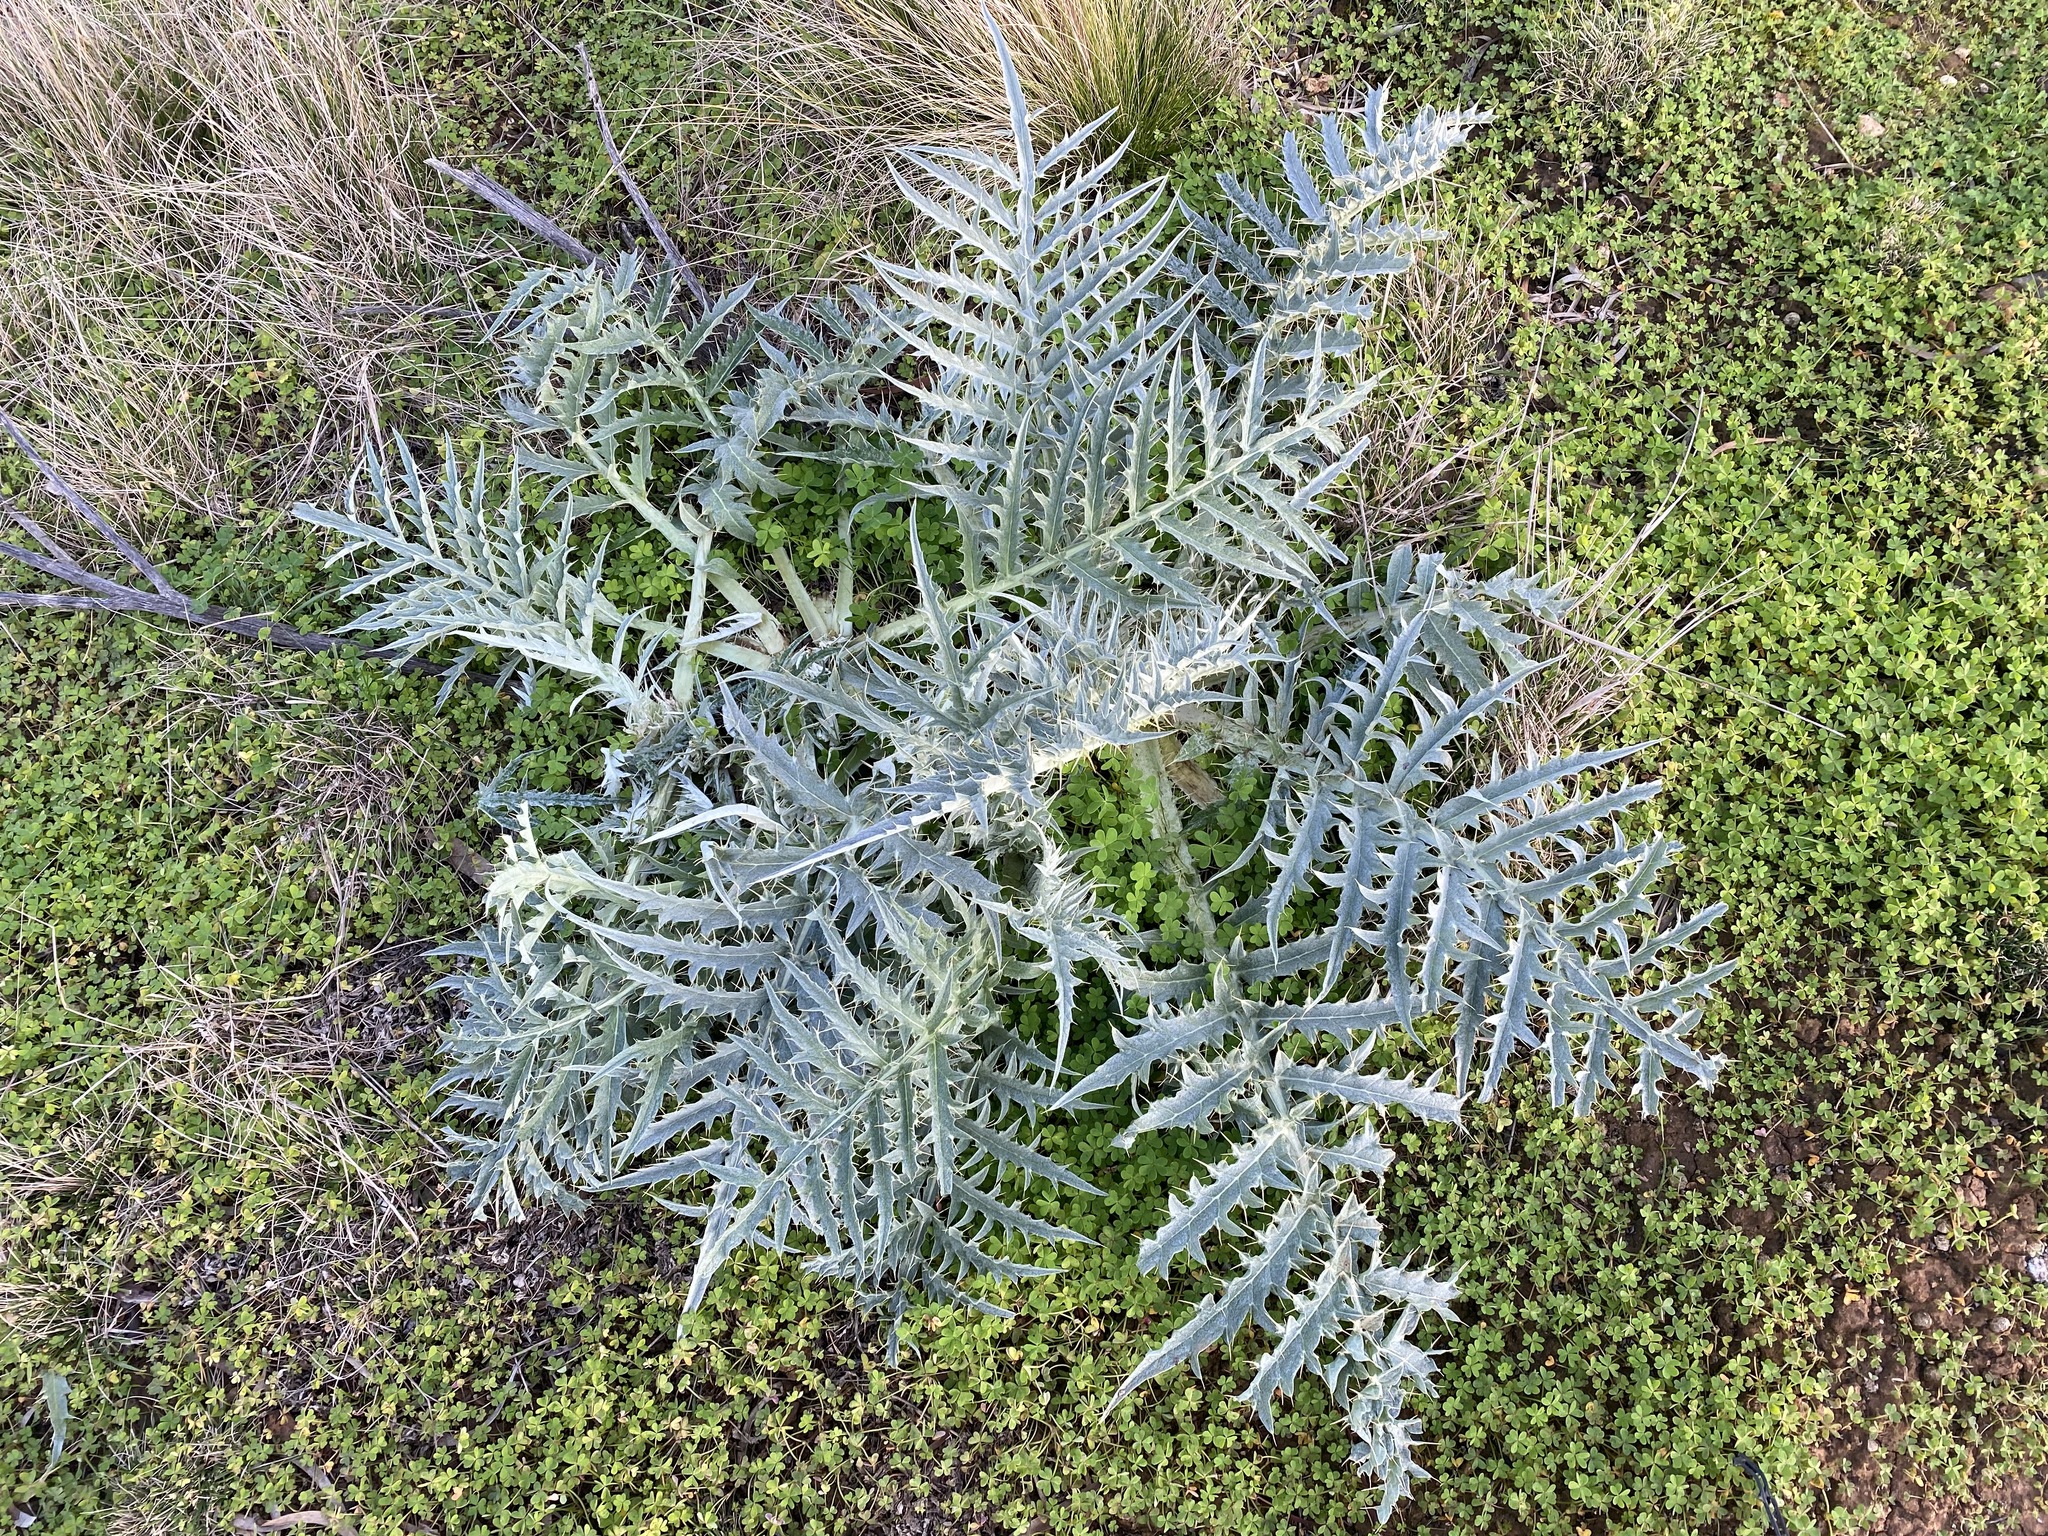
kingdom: Plantae
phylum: Tracheophyta
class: Magnoliopsida
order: Asterales
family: Asteraceae
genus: Cynara
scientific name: Cynara cardunculus
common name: Globe artichoke
